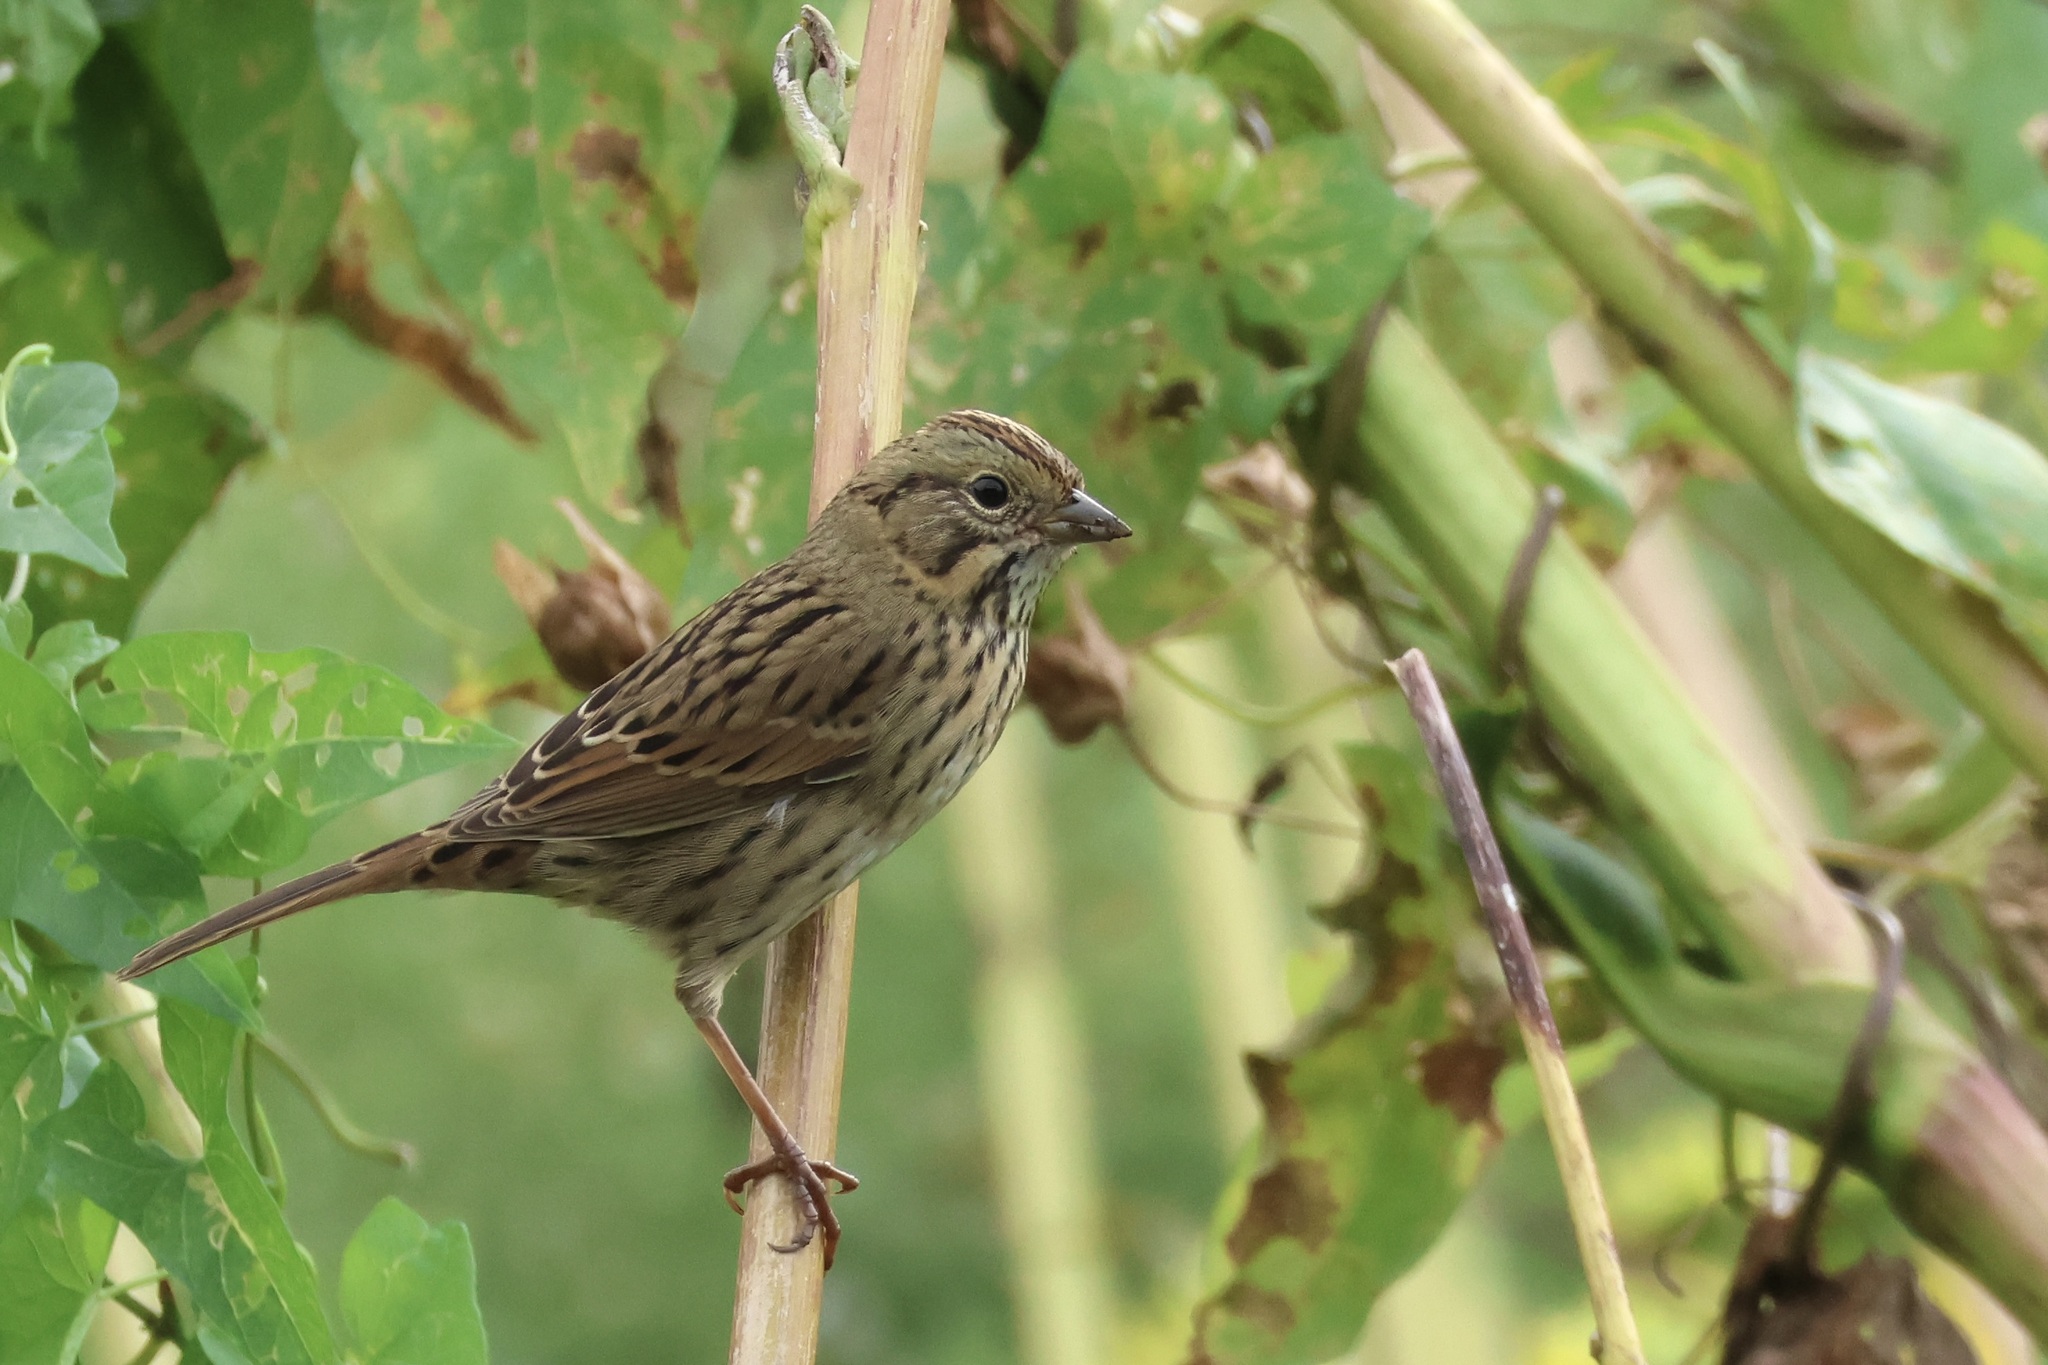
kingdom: Animalia
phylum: Chordata
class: Aves
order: Passeriformes
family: Passerellidae
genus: Melospiza
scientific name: Melospiza lincolnii
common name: Lincoln's sparrow
